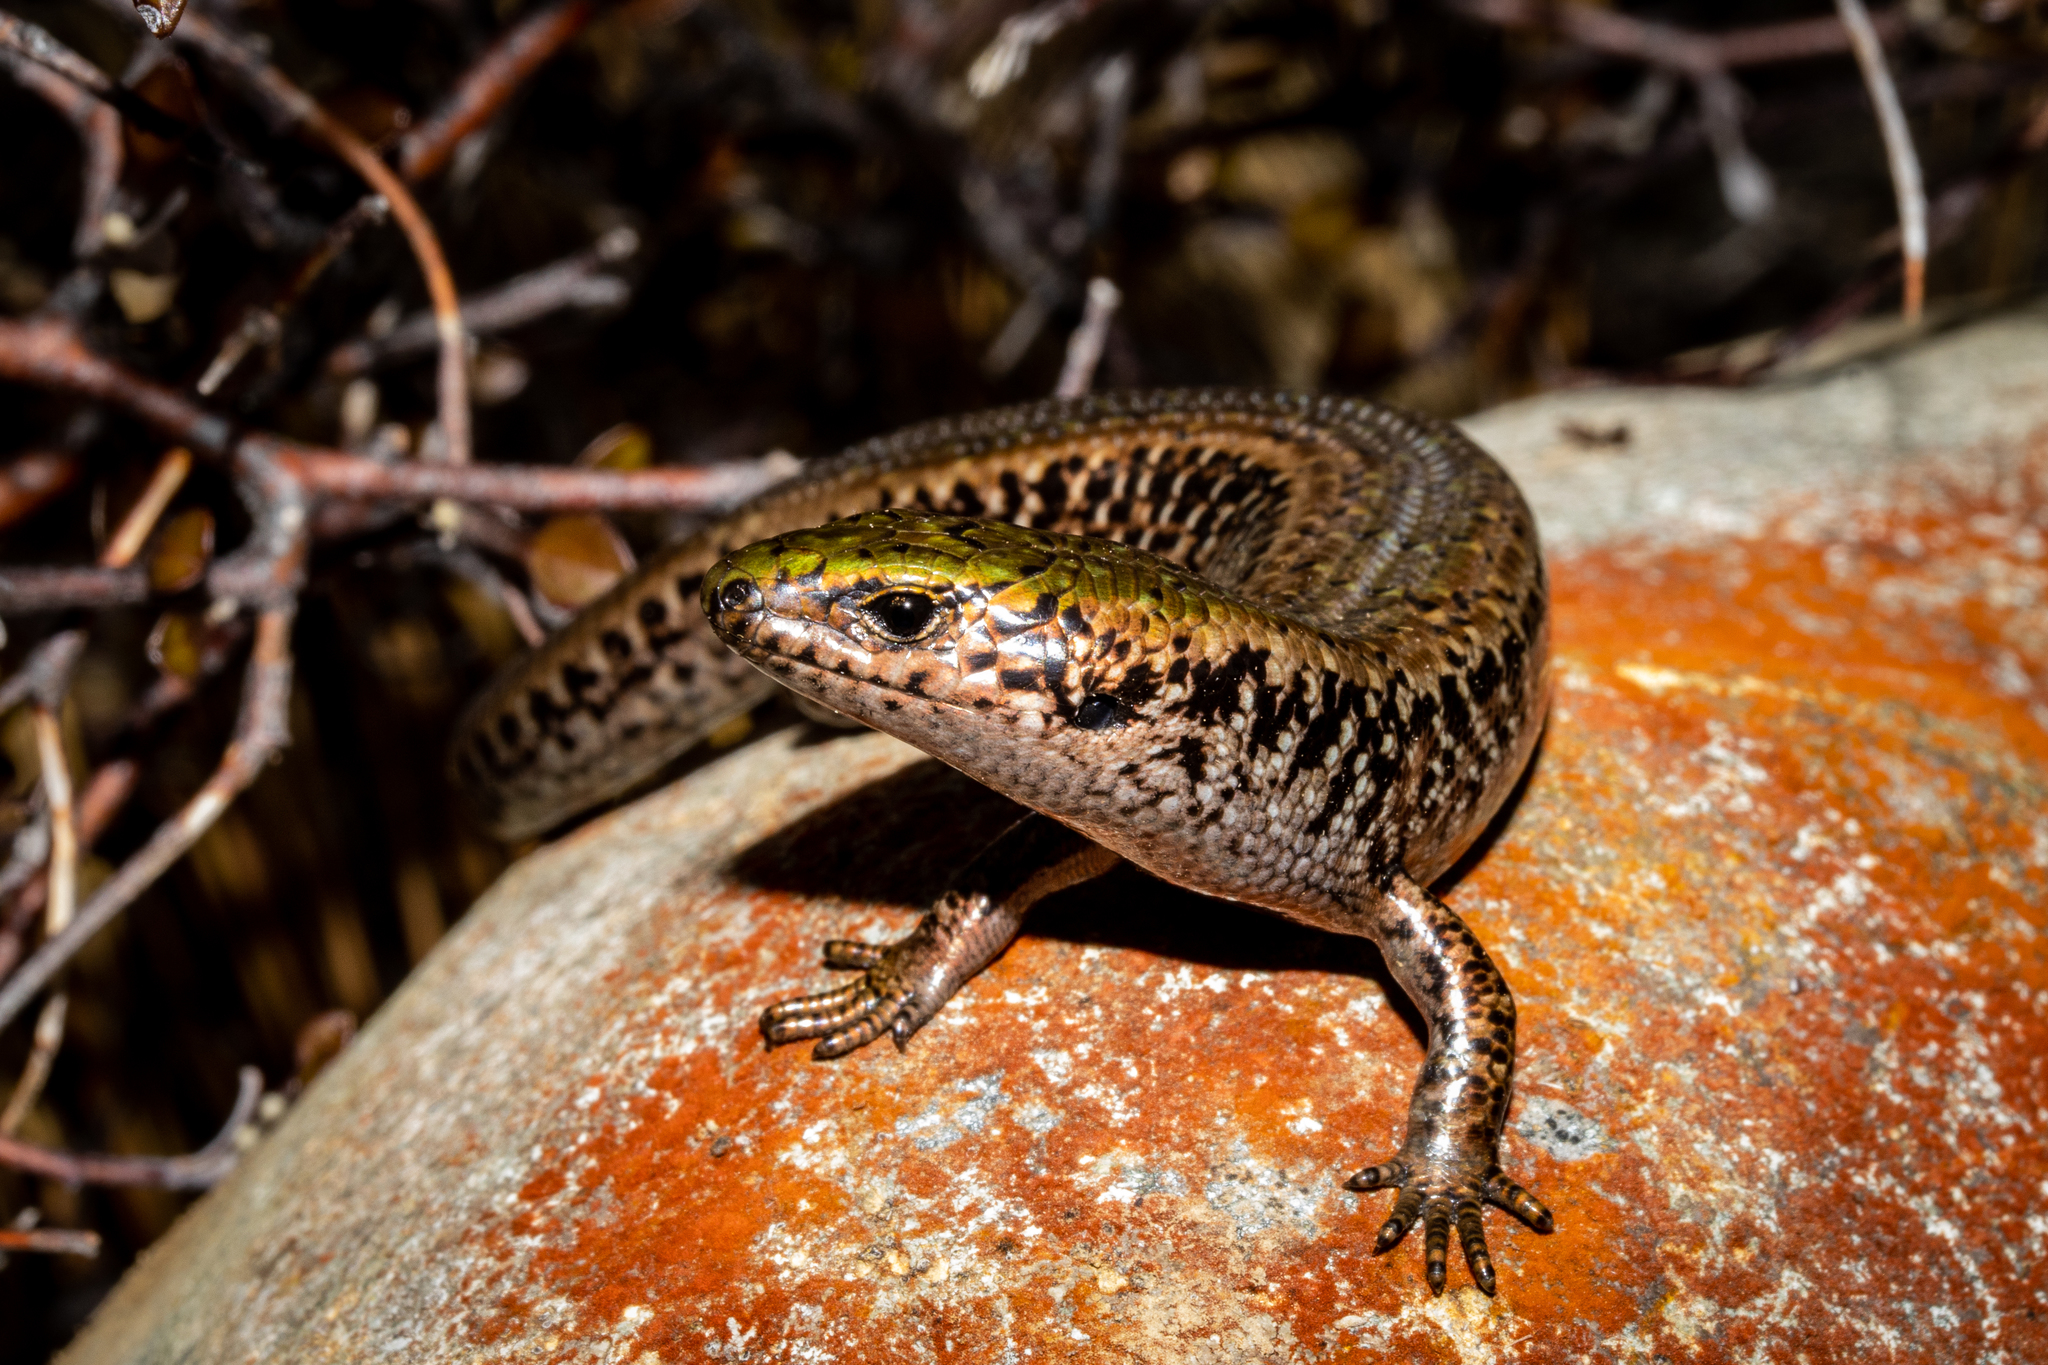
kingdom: Animalia
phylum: Chordata
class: Squamata
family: Scincidae
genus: Oligosoma
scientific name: Oligosoma chloronoton
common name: Green skink
